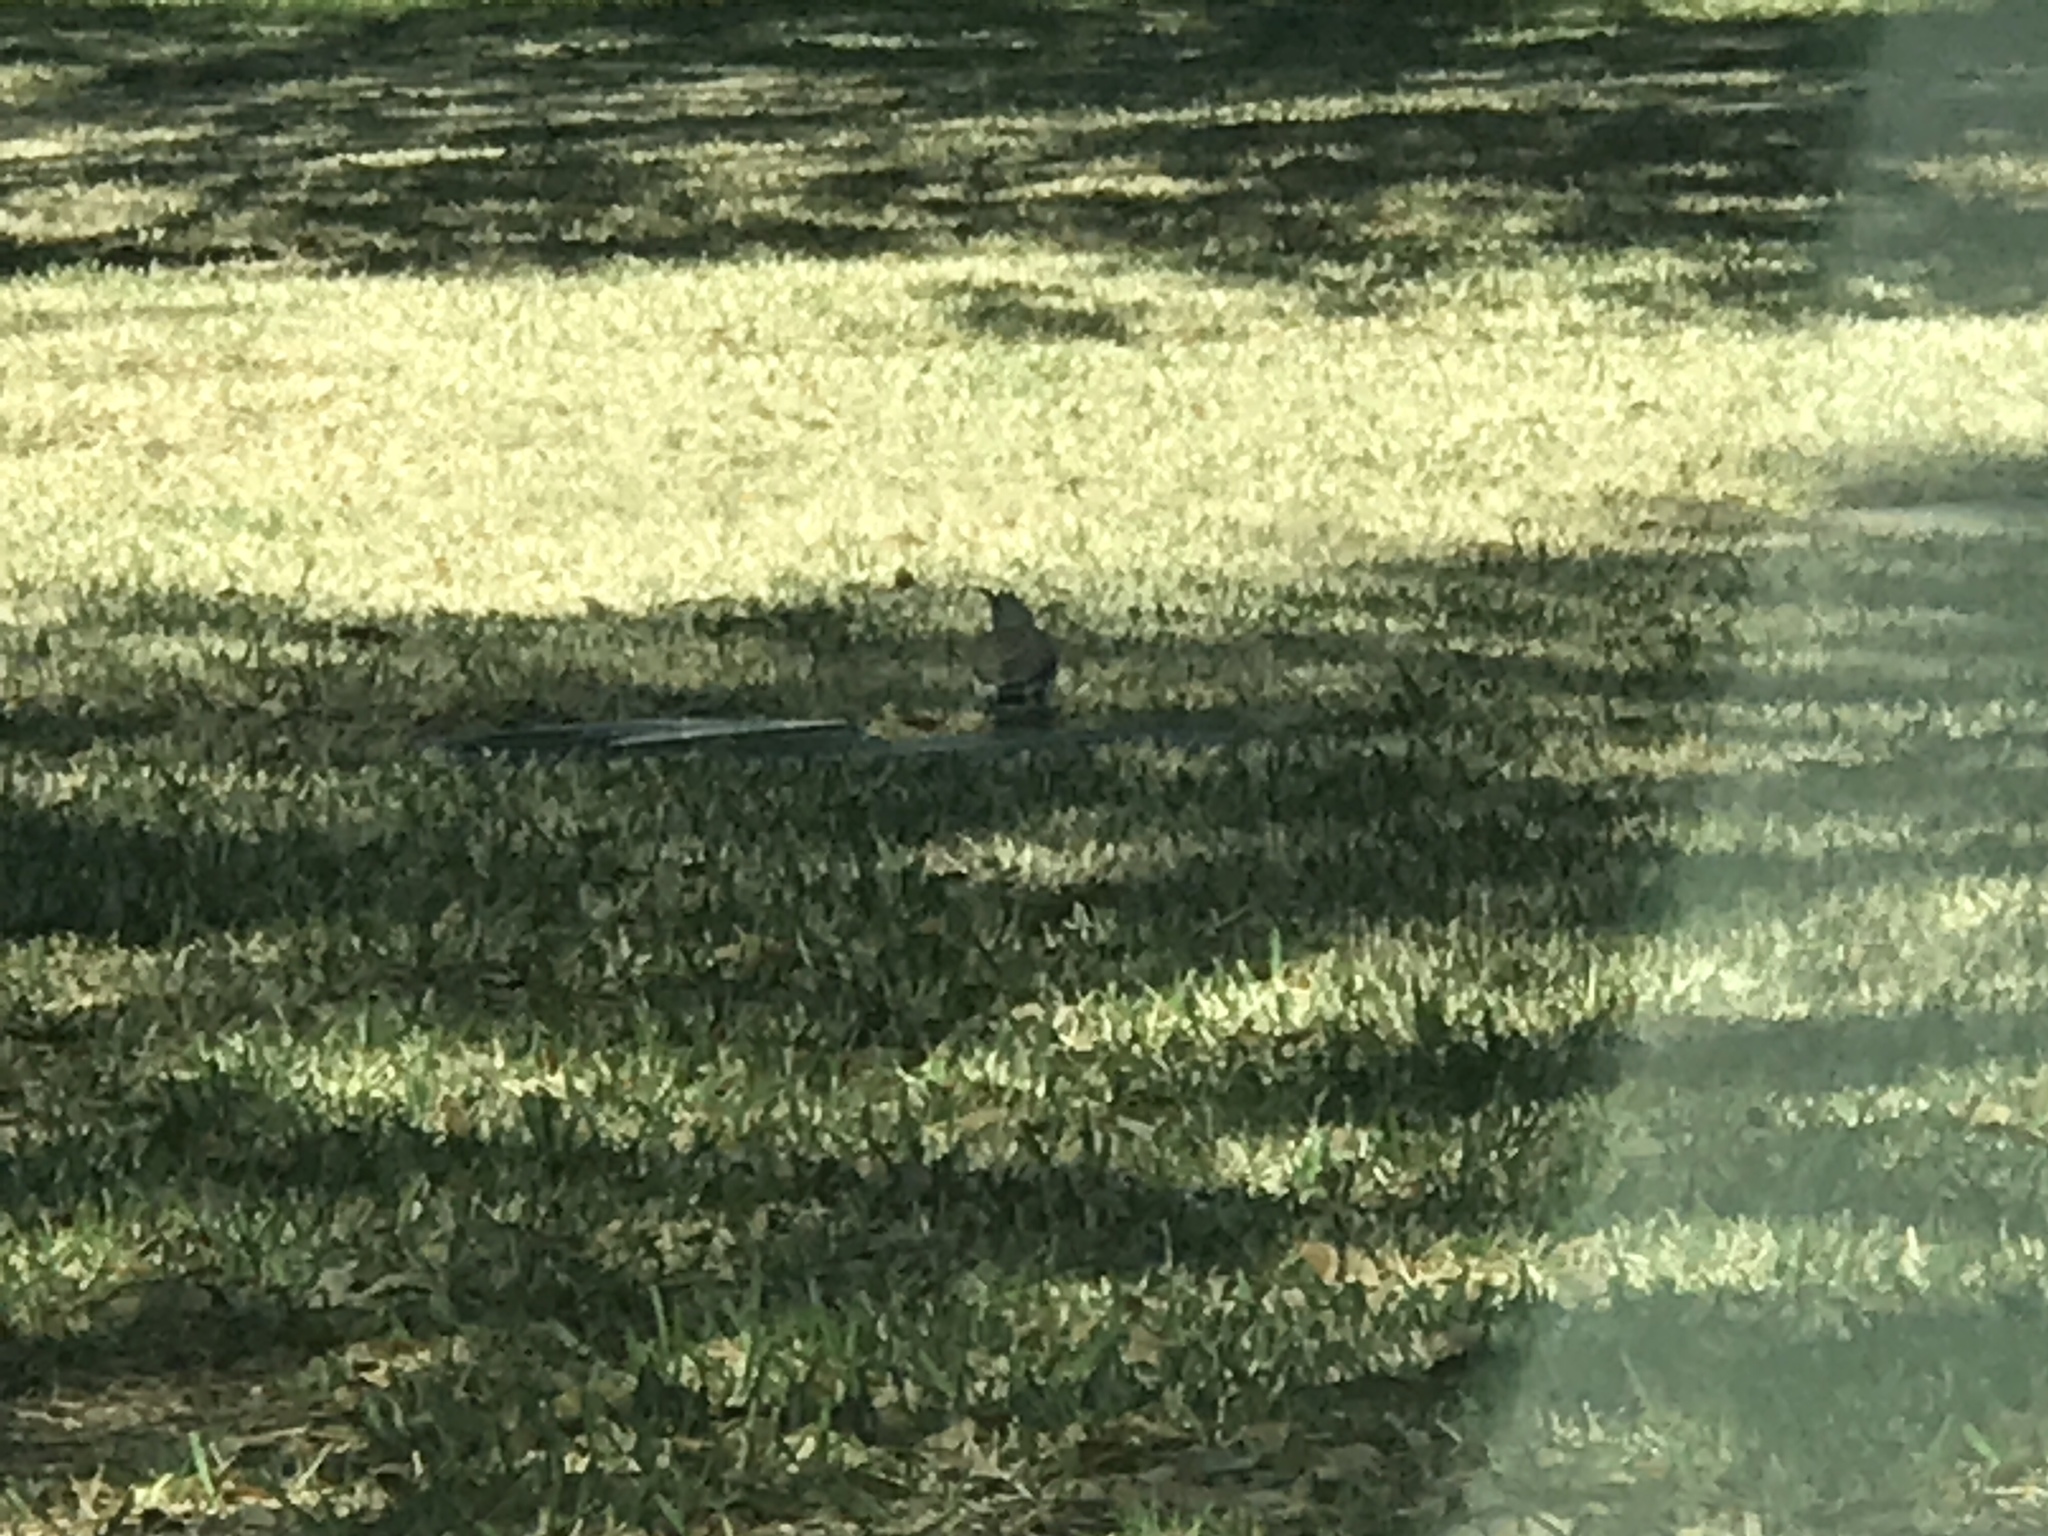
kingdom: Animalia
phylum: Chordata
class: Aves
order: Piciformes
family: Picidae
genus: Colaptes
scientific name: Colaptes auratus
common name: Northern flicker
